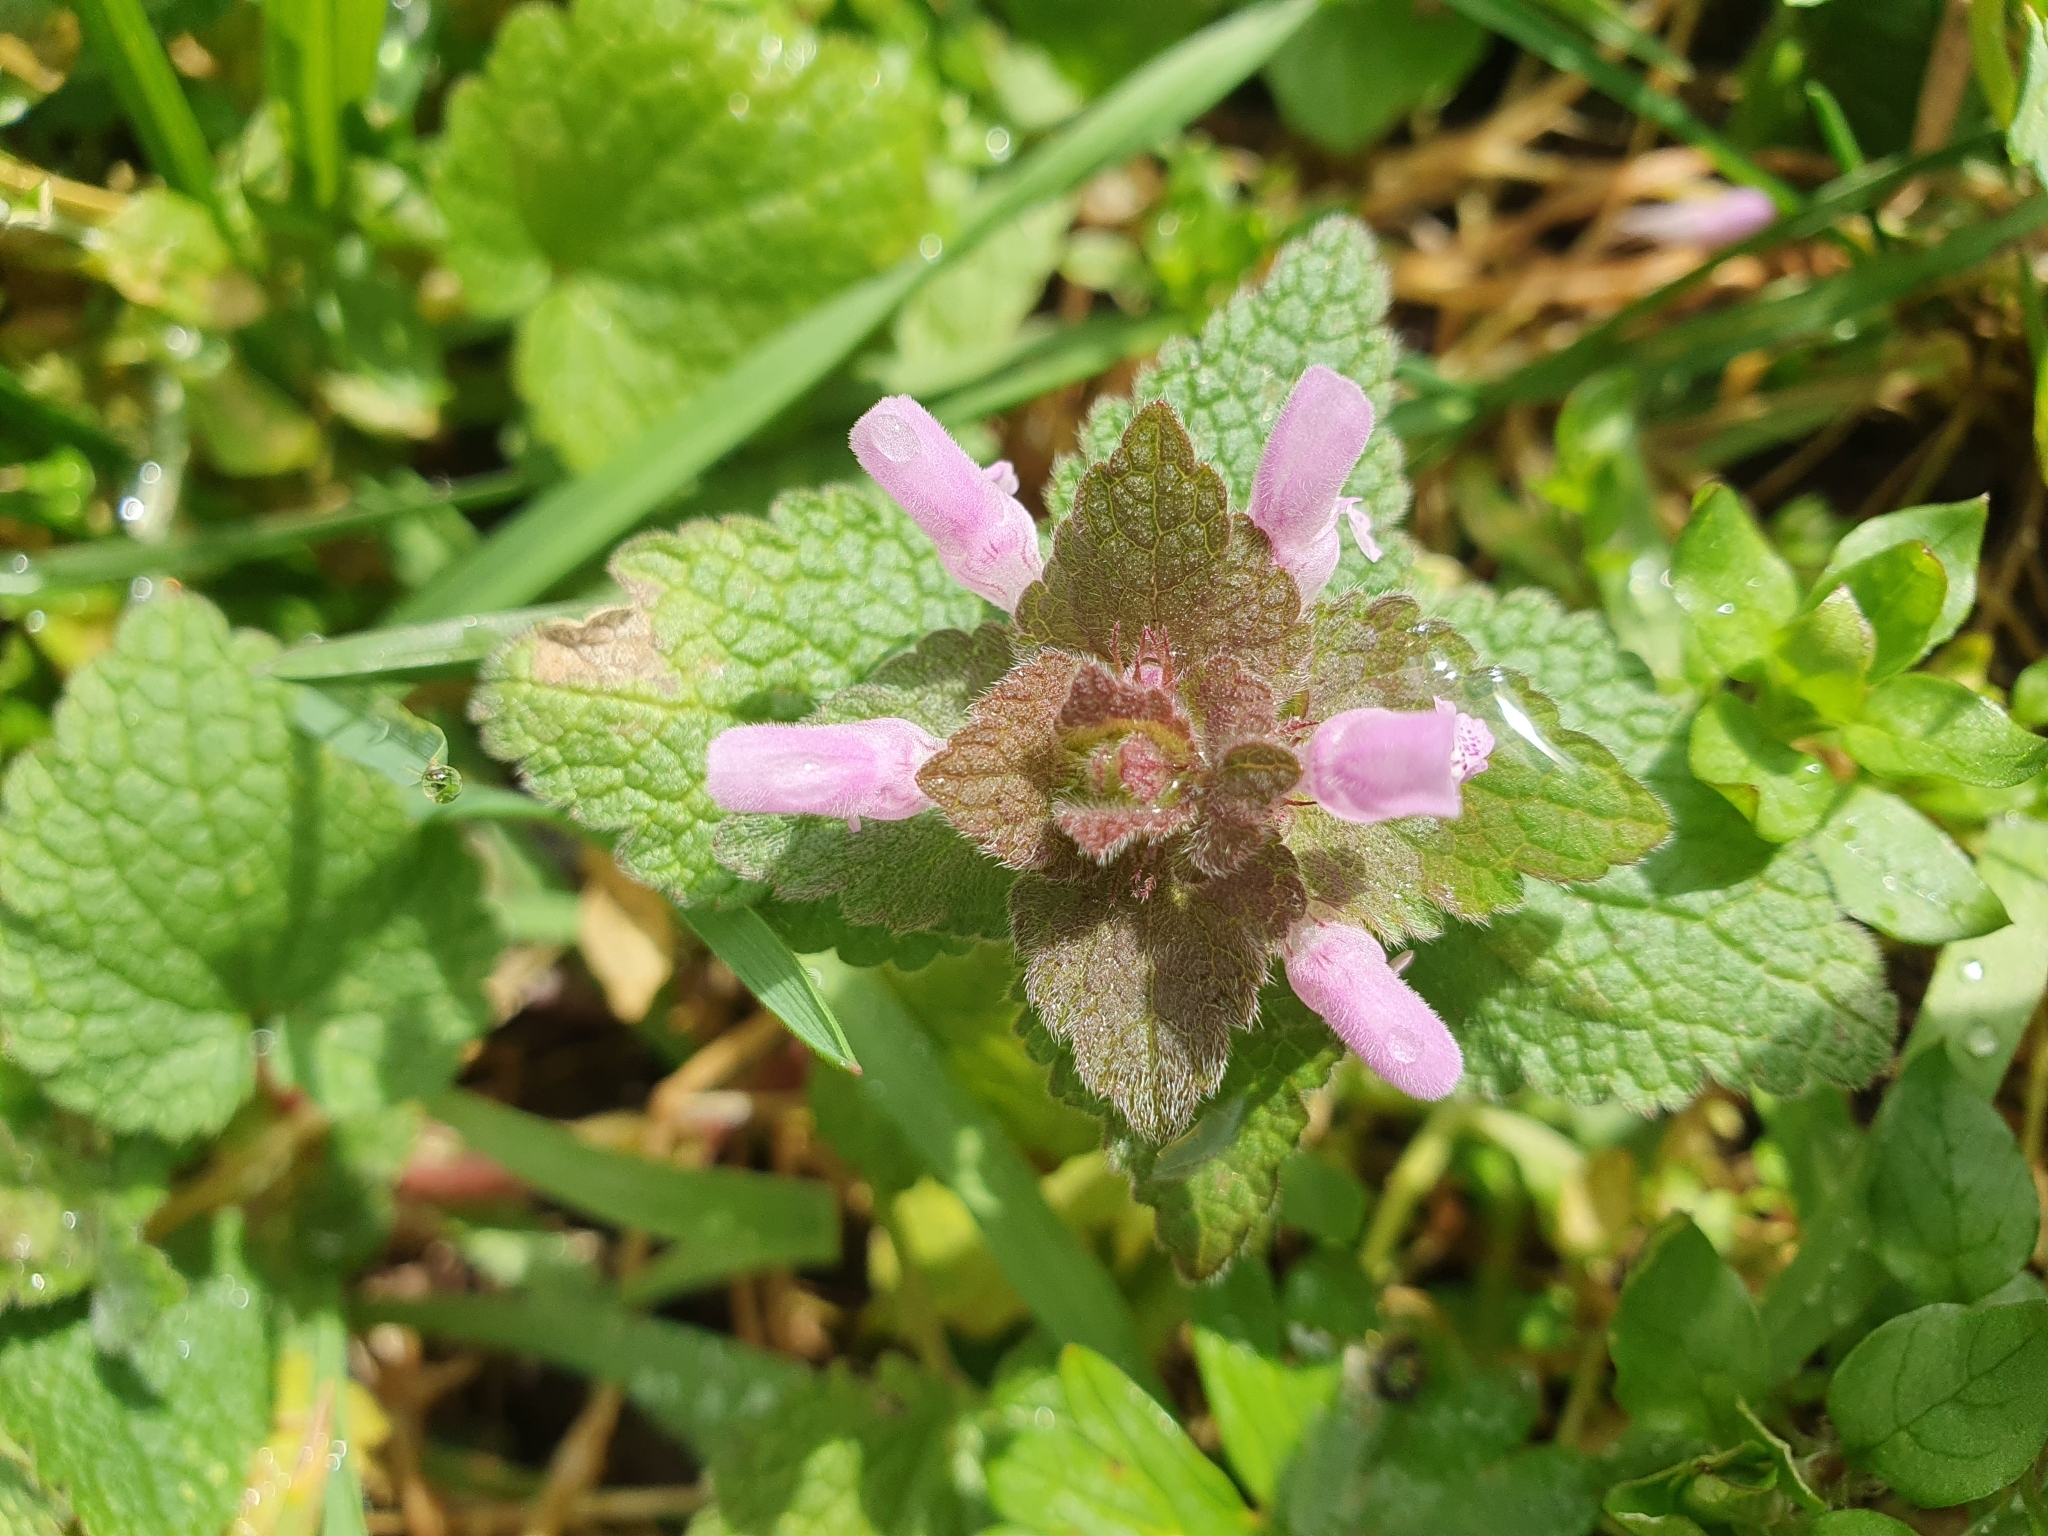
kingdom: Plantae
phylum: Tracheophyta
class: Magnoliopsida
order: Lamiales
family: Lamiaceae
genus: Lamium
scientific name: Lamium purpureum
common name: Red dead-nettle
